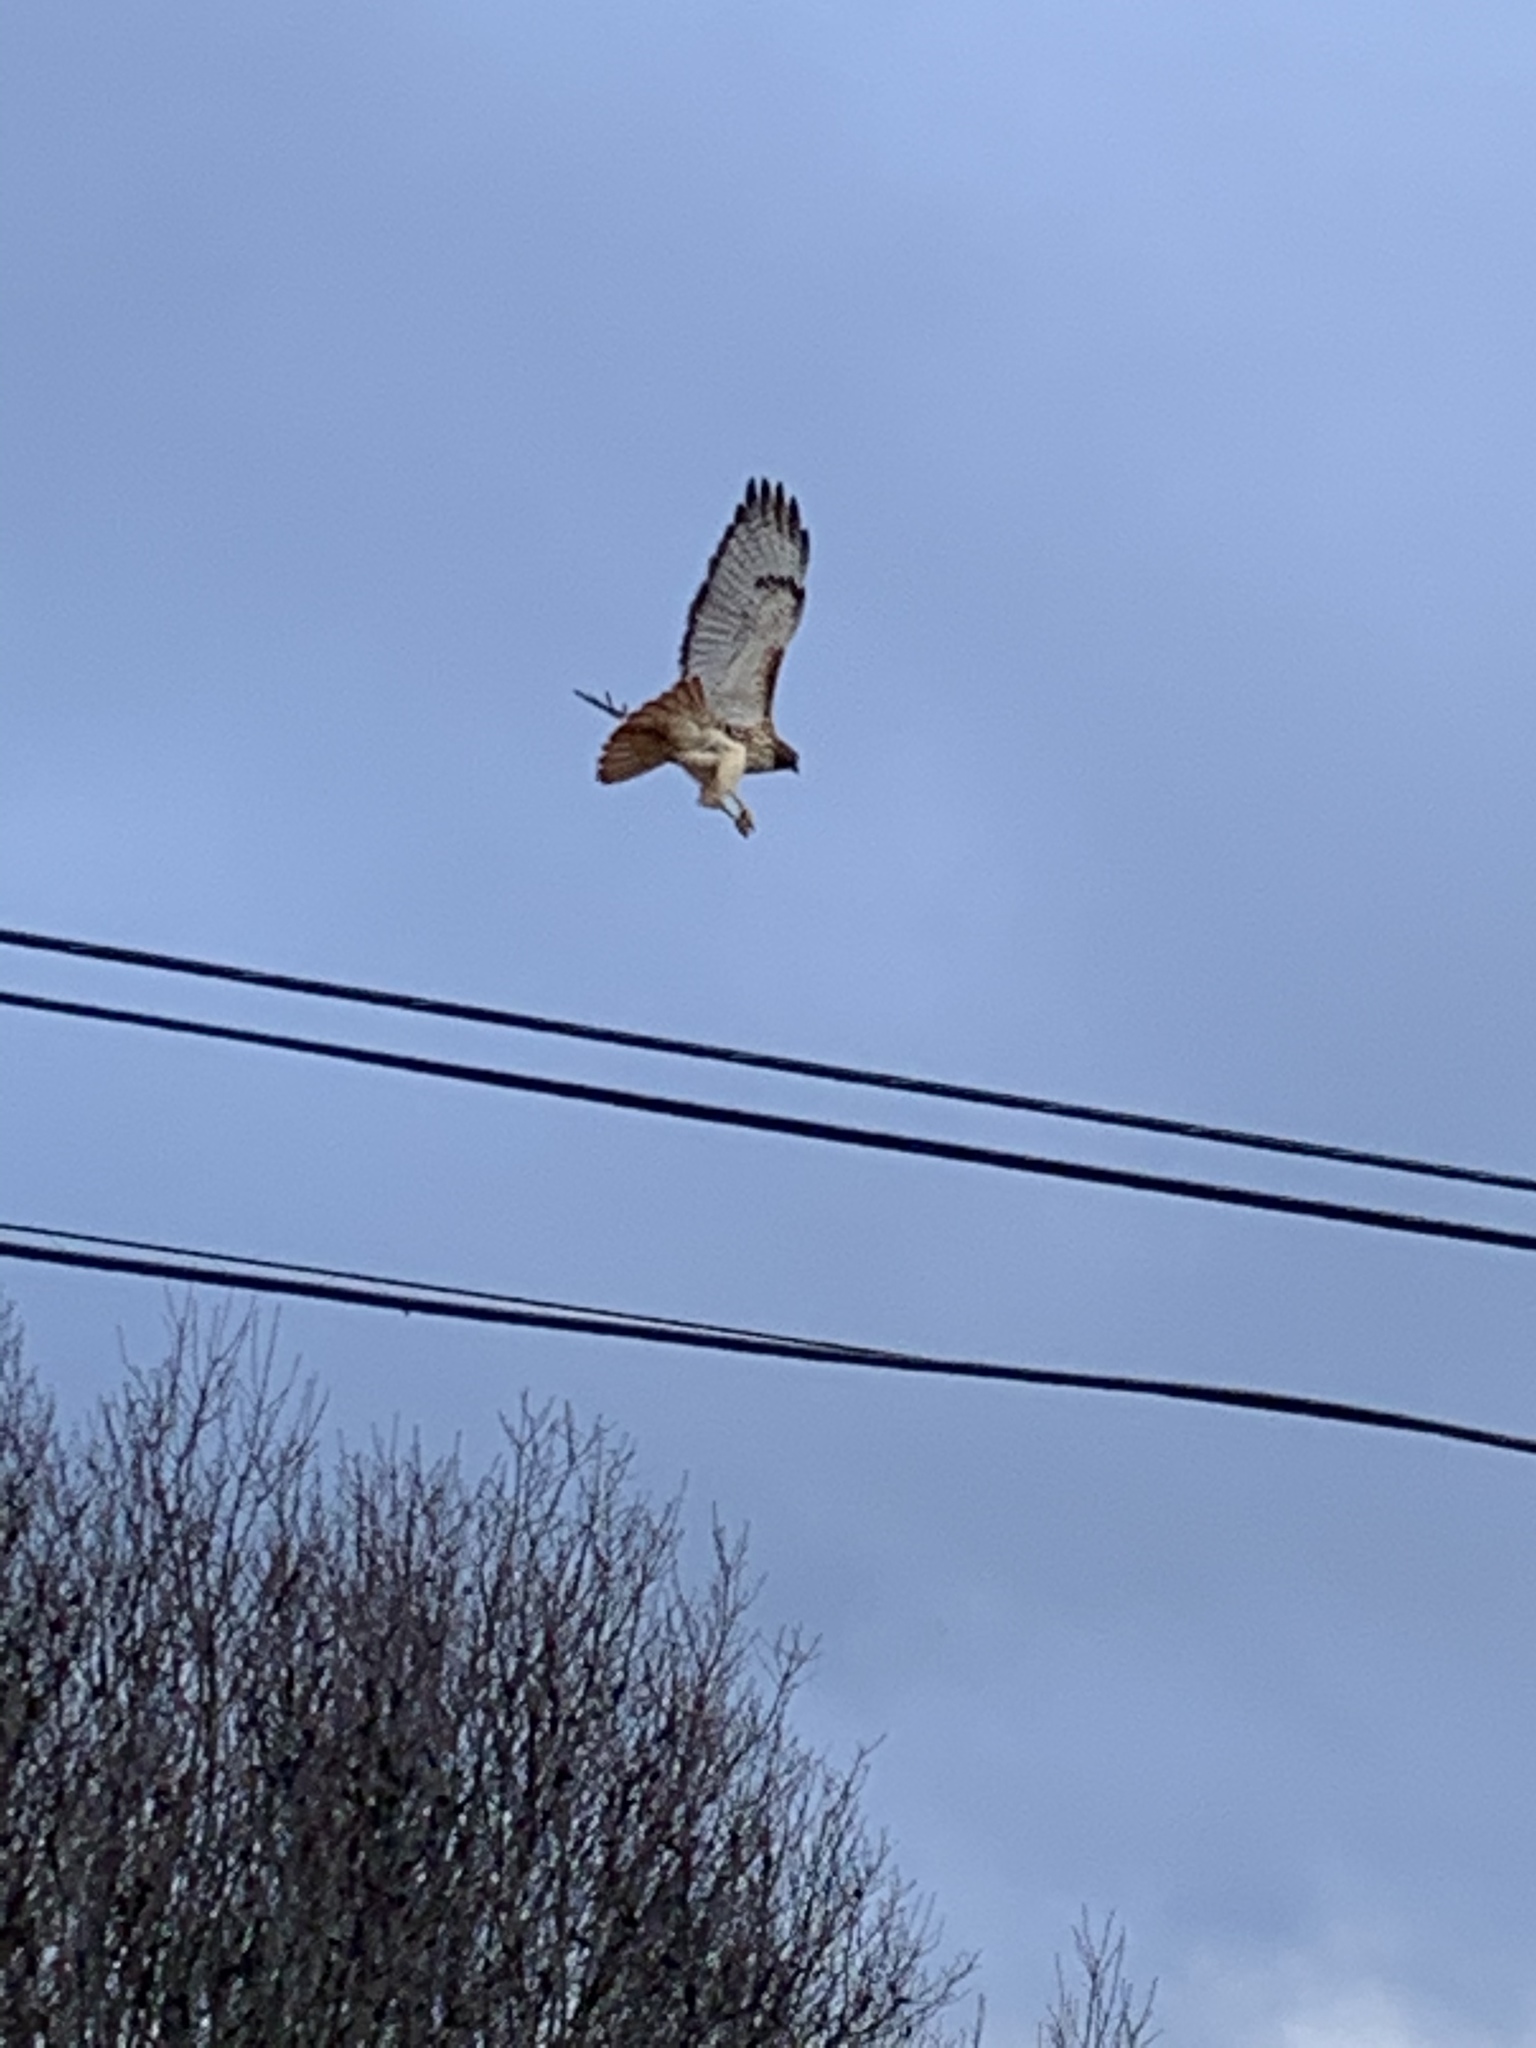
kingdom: Animalia
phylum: Chordata
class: Aves
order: Accipitriformes
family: Accipitridae
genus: Buteo
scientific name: Buteo jamaicensis
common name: Red-tailed hawk
